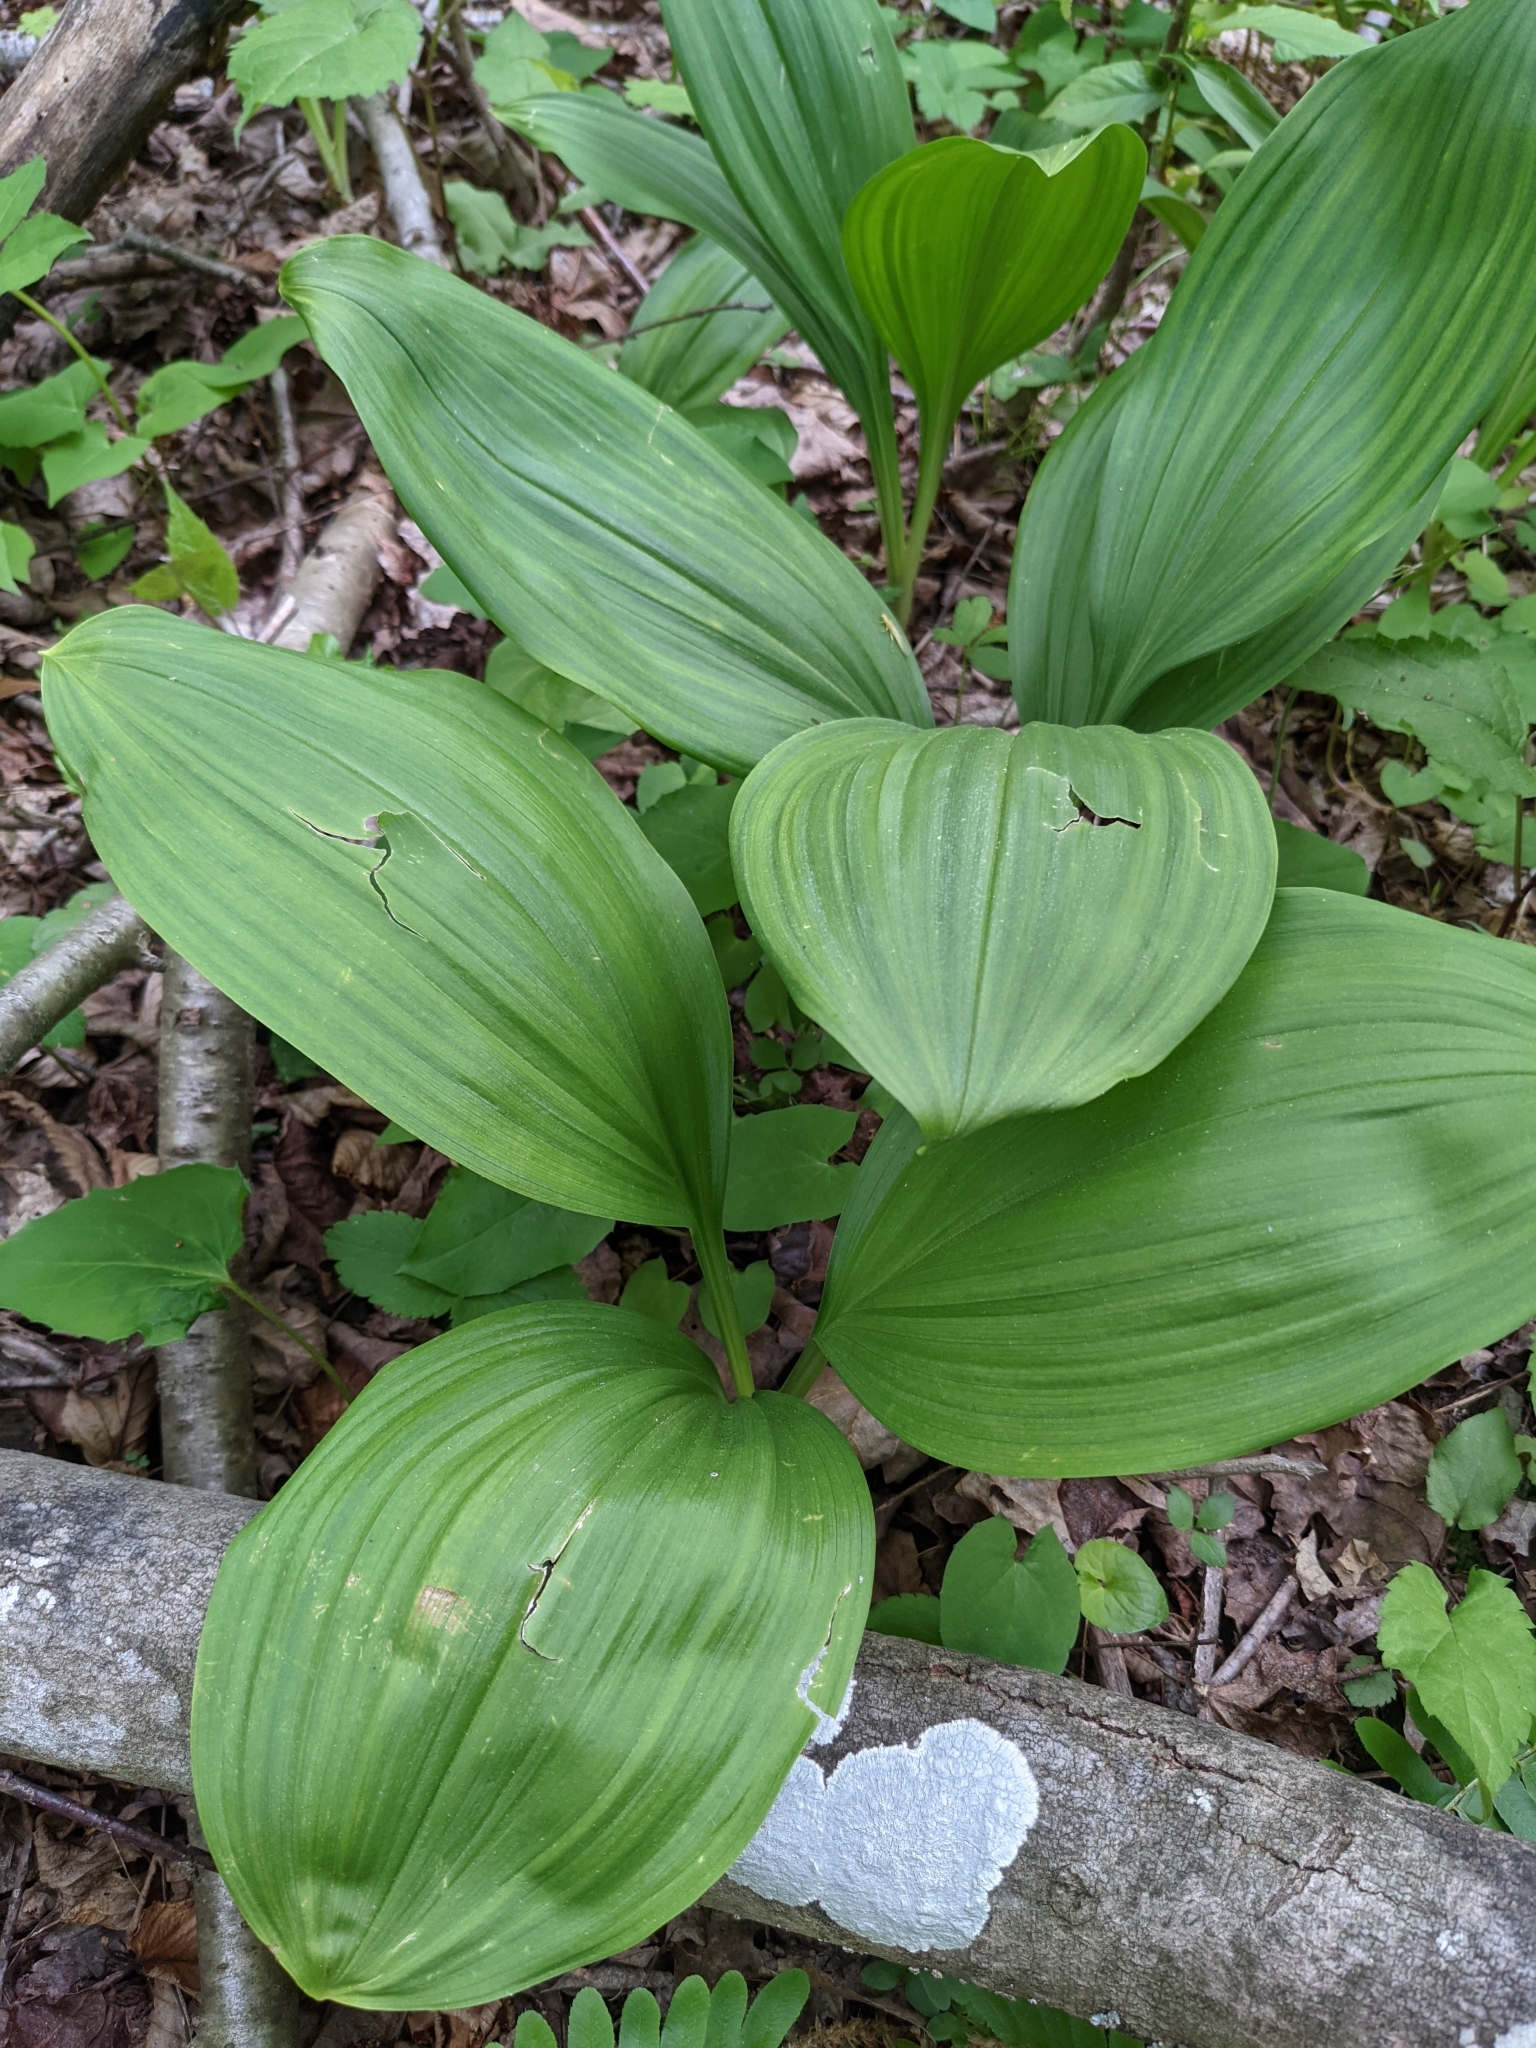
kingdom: Plantae
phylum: Tracheophyta
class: Liliopsida
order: Liliales
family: Melanthiaceae
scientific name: Melanthiaceae
